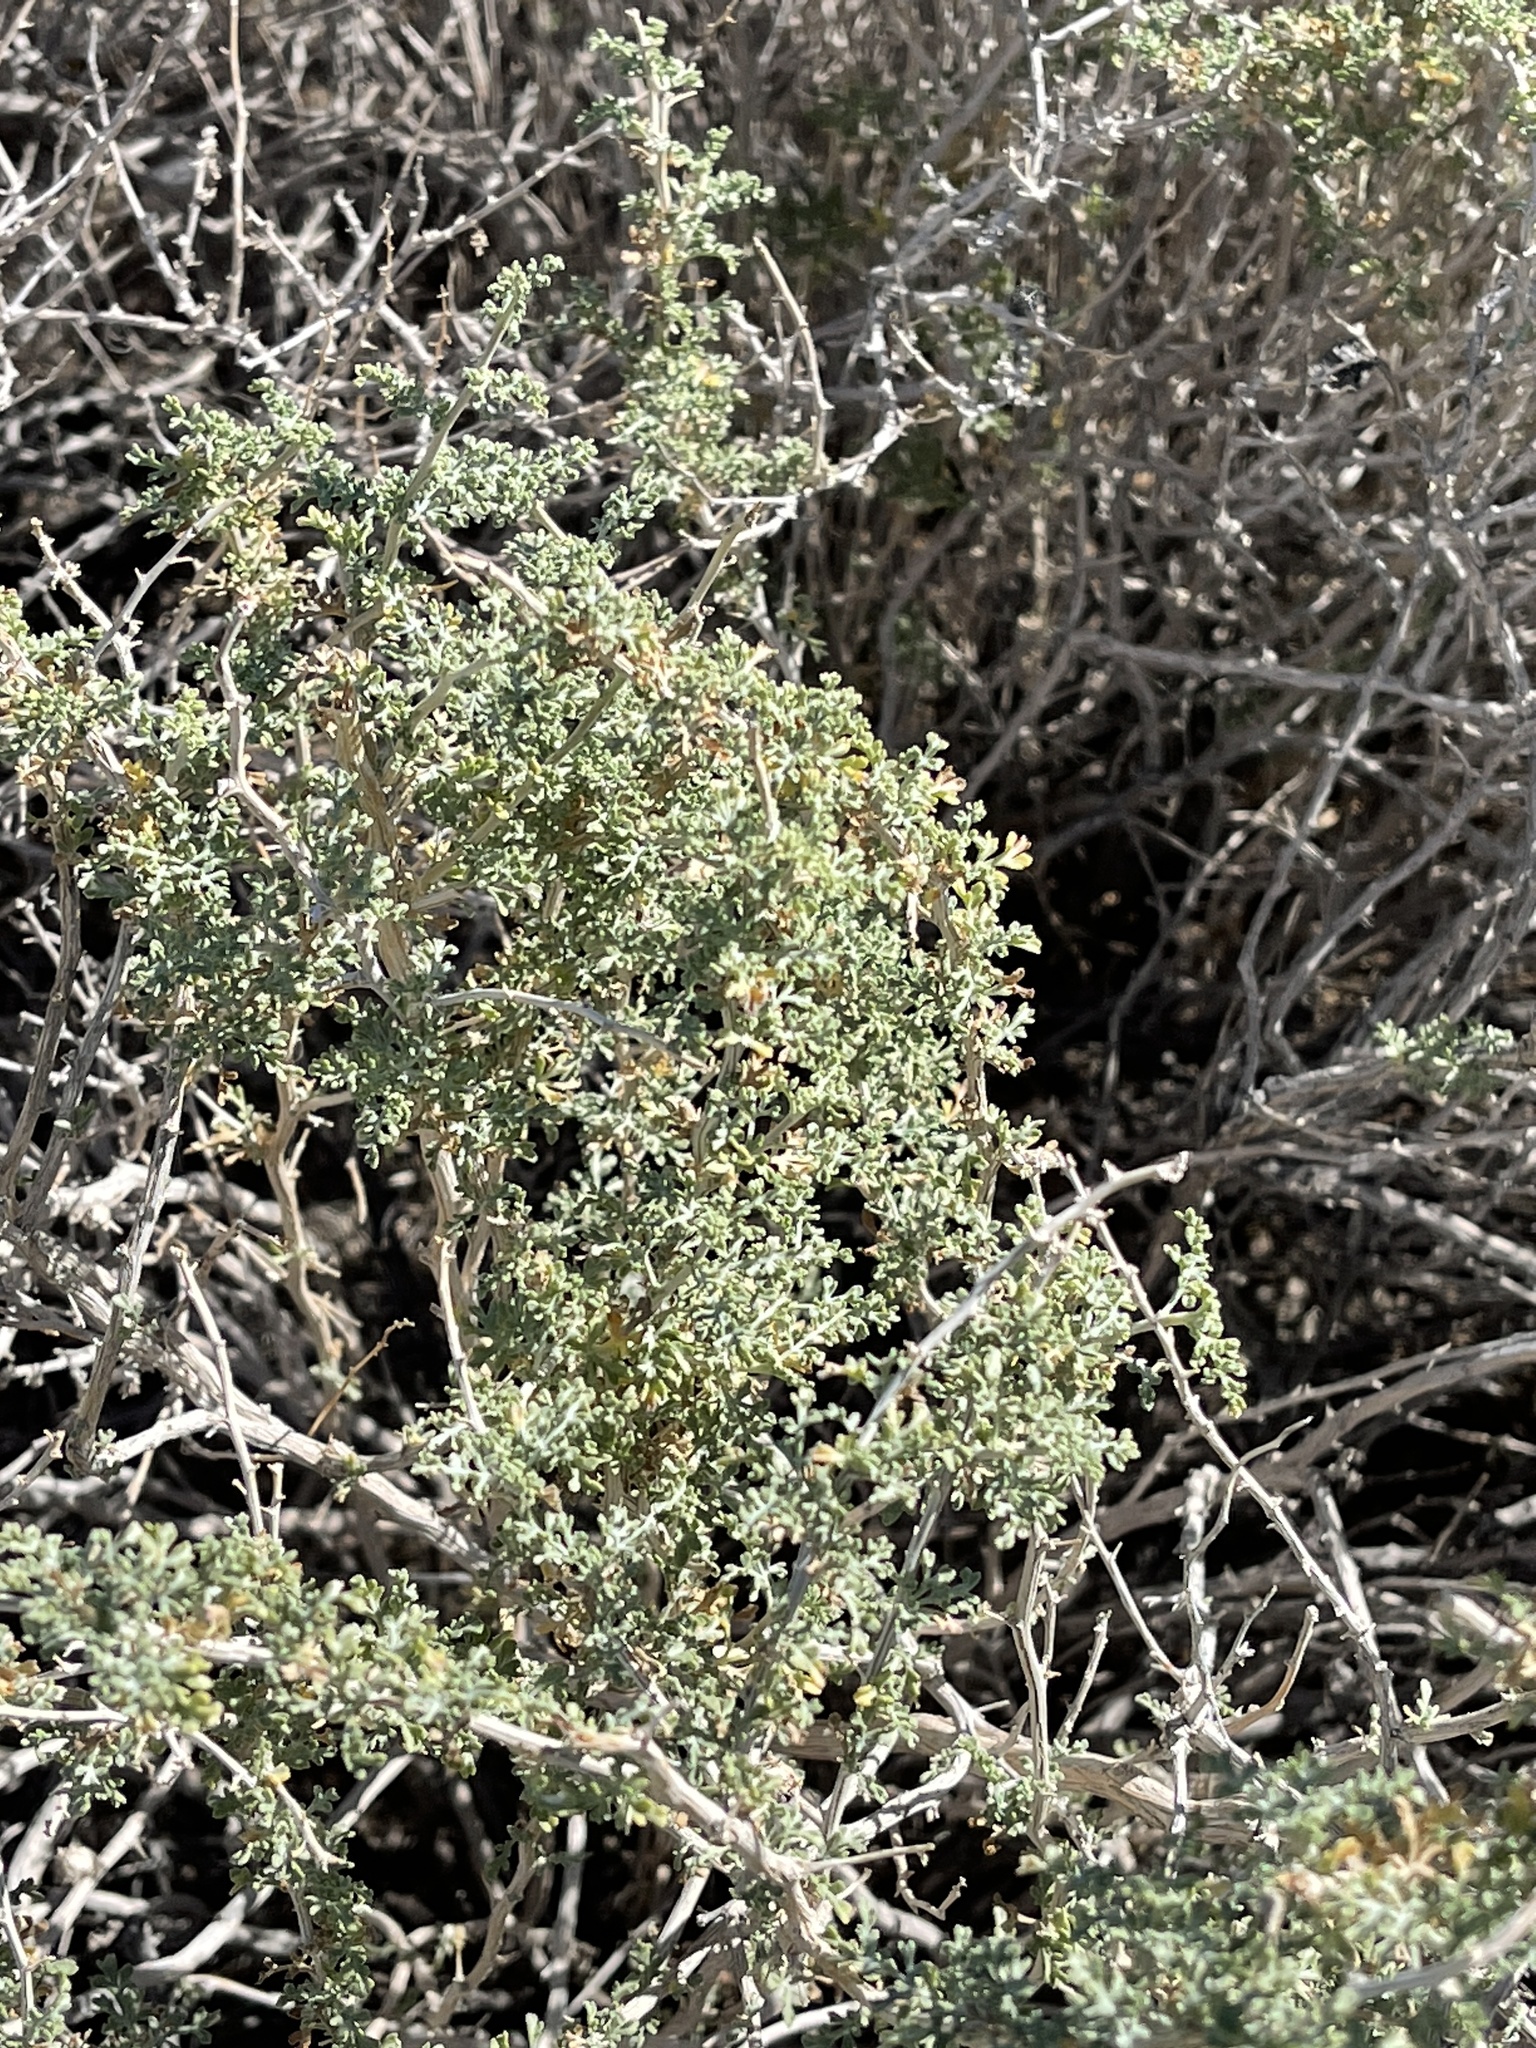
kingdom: Plantae
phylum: Tracheophyta
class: Magnoliopsida
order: Asterales
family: Asteraceae
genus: Ambrosia
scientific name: Ambrosia dumosa
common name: Bur-sage
